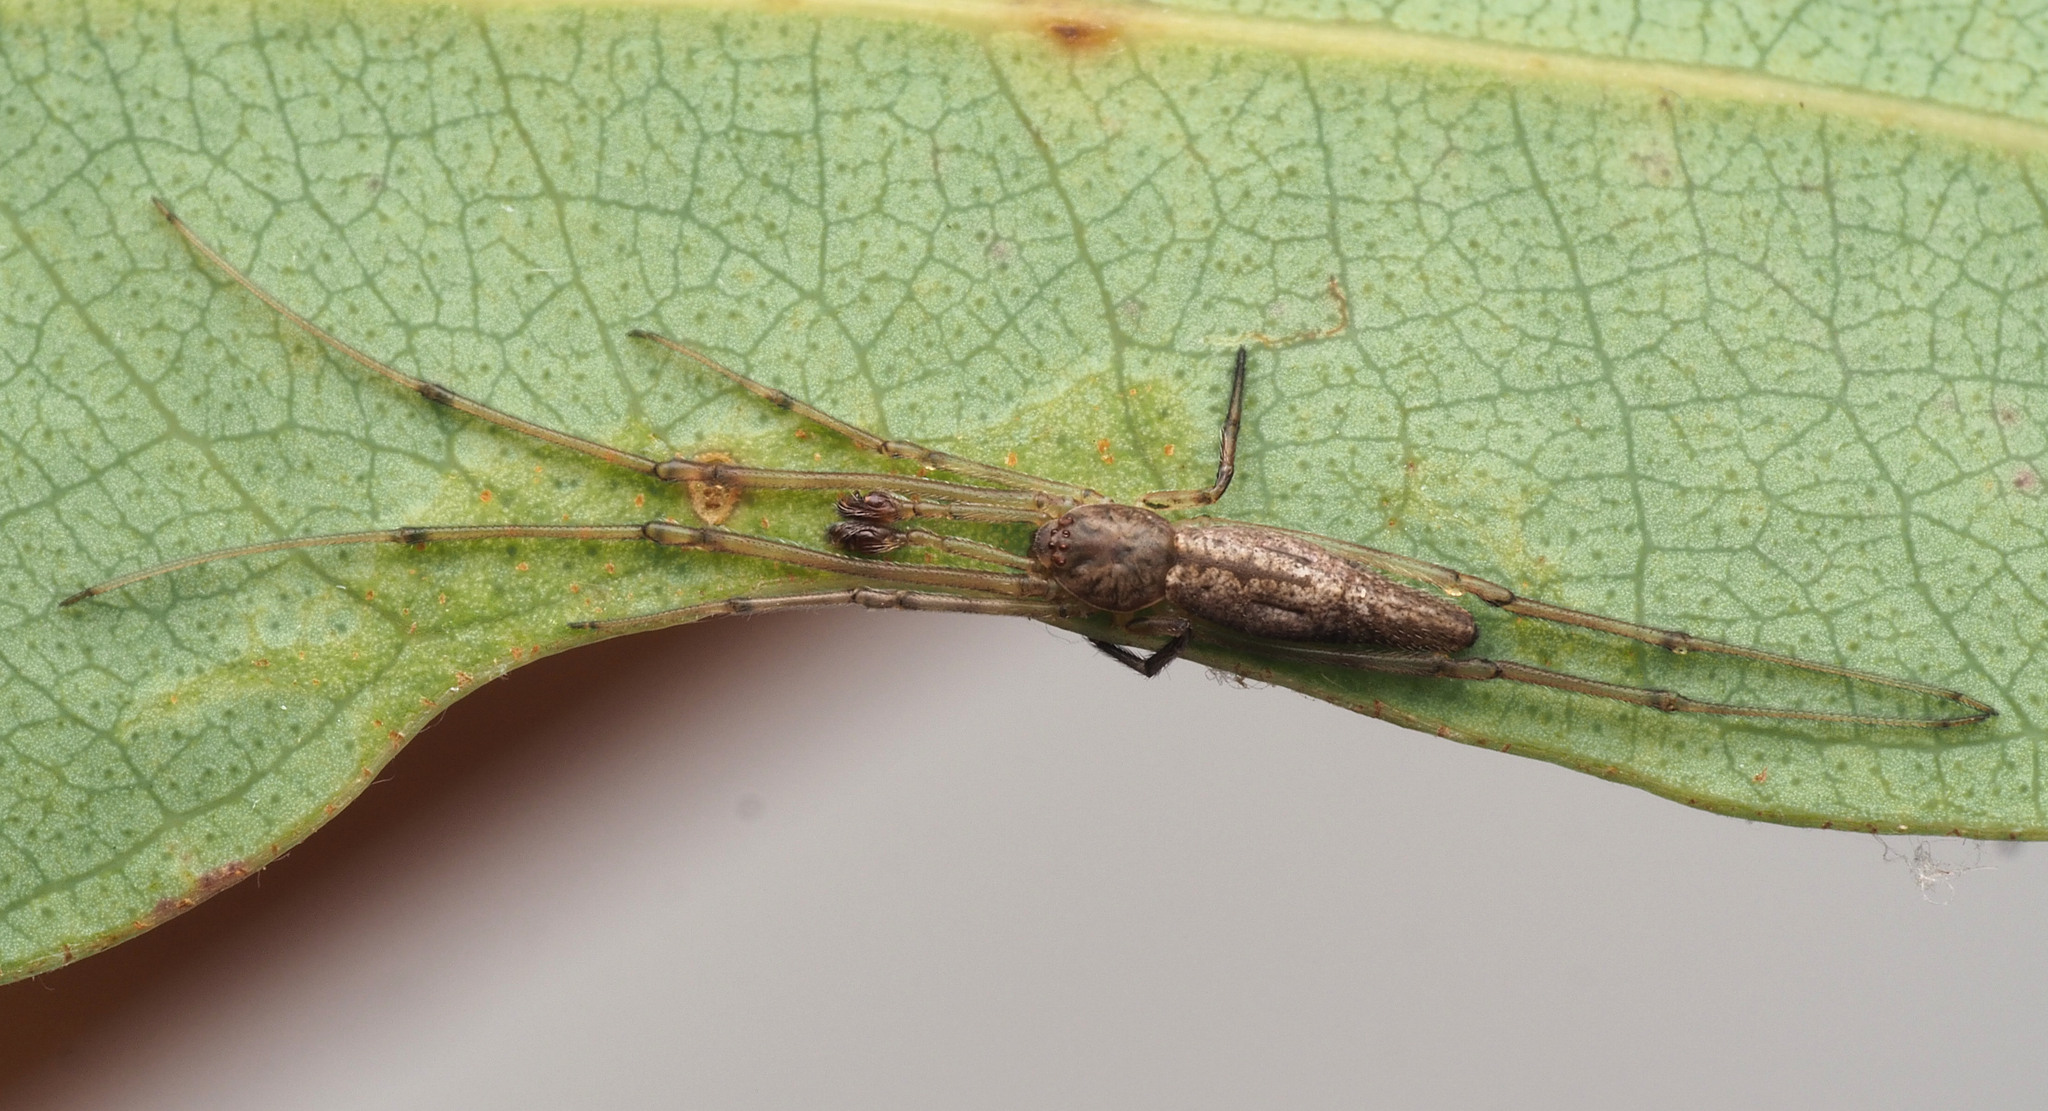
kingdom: Animalia
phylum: Arthropoda
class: Arachnida
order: Araneae
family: Theridiidae
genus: Moneta
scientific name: Moneta
